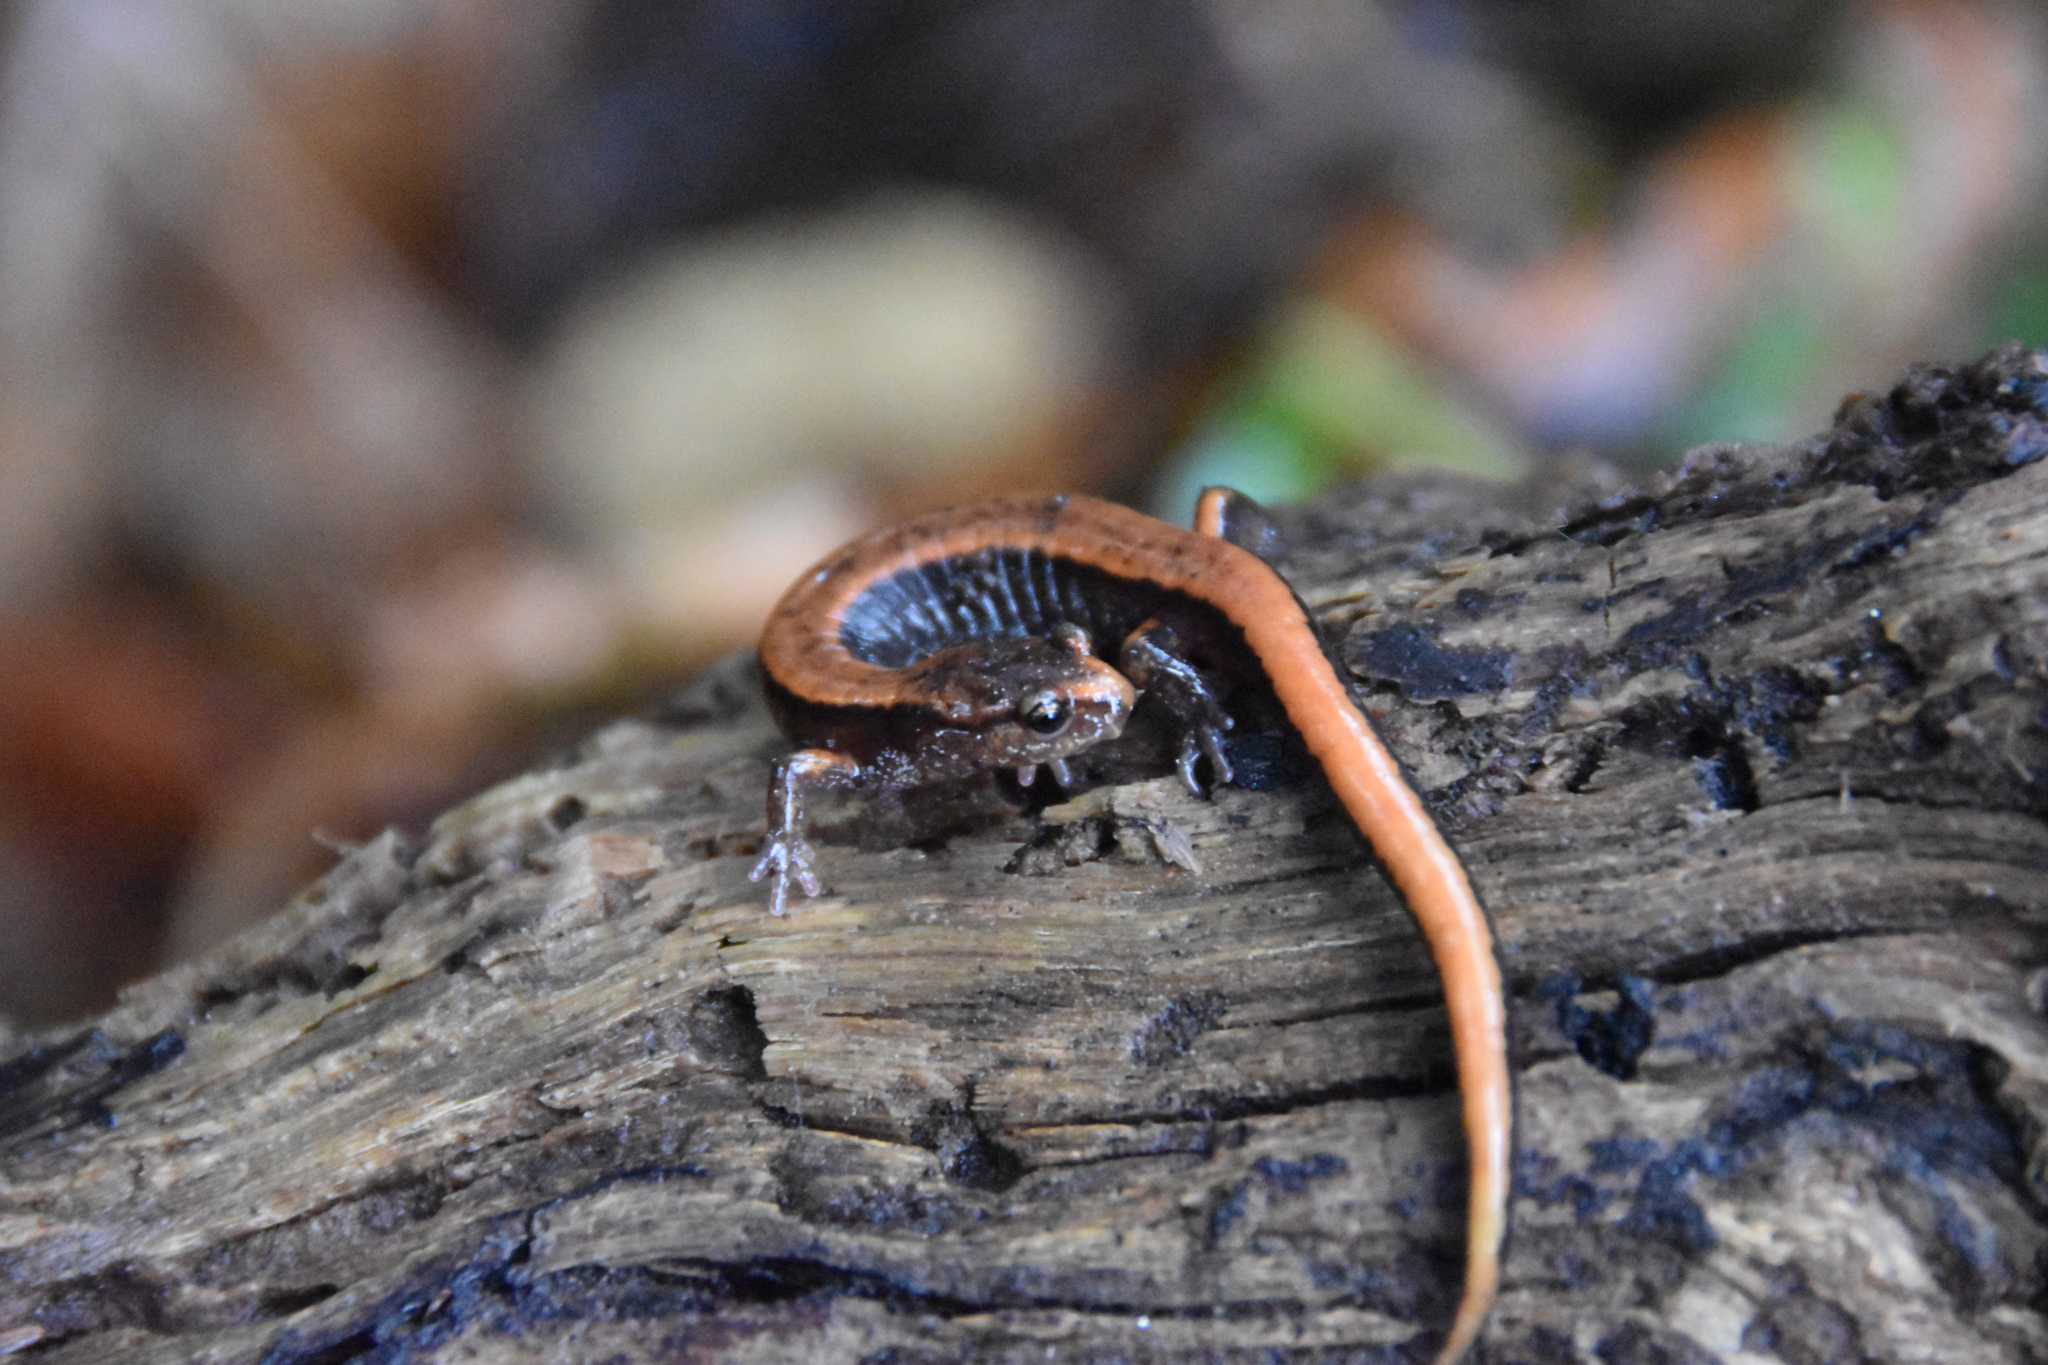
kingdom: Animalia
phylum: Chordata
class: Amphibia
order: Caudata
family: Plethodontidae
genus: Plethodon
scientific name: Plethodon vehiculum
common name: Western red-backed salamander
